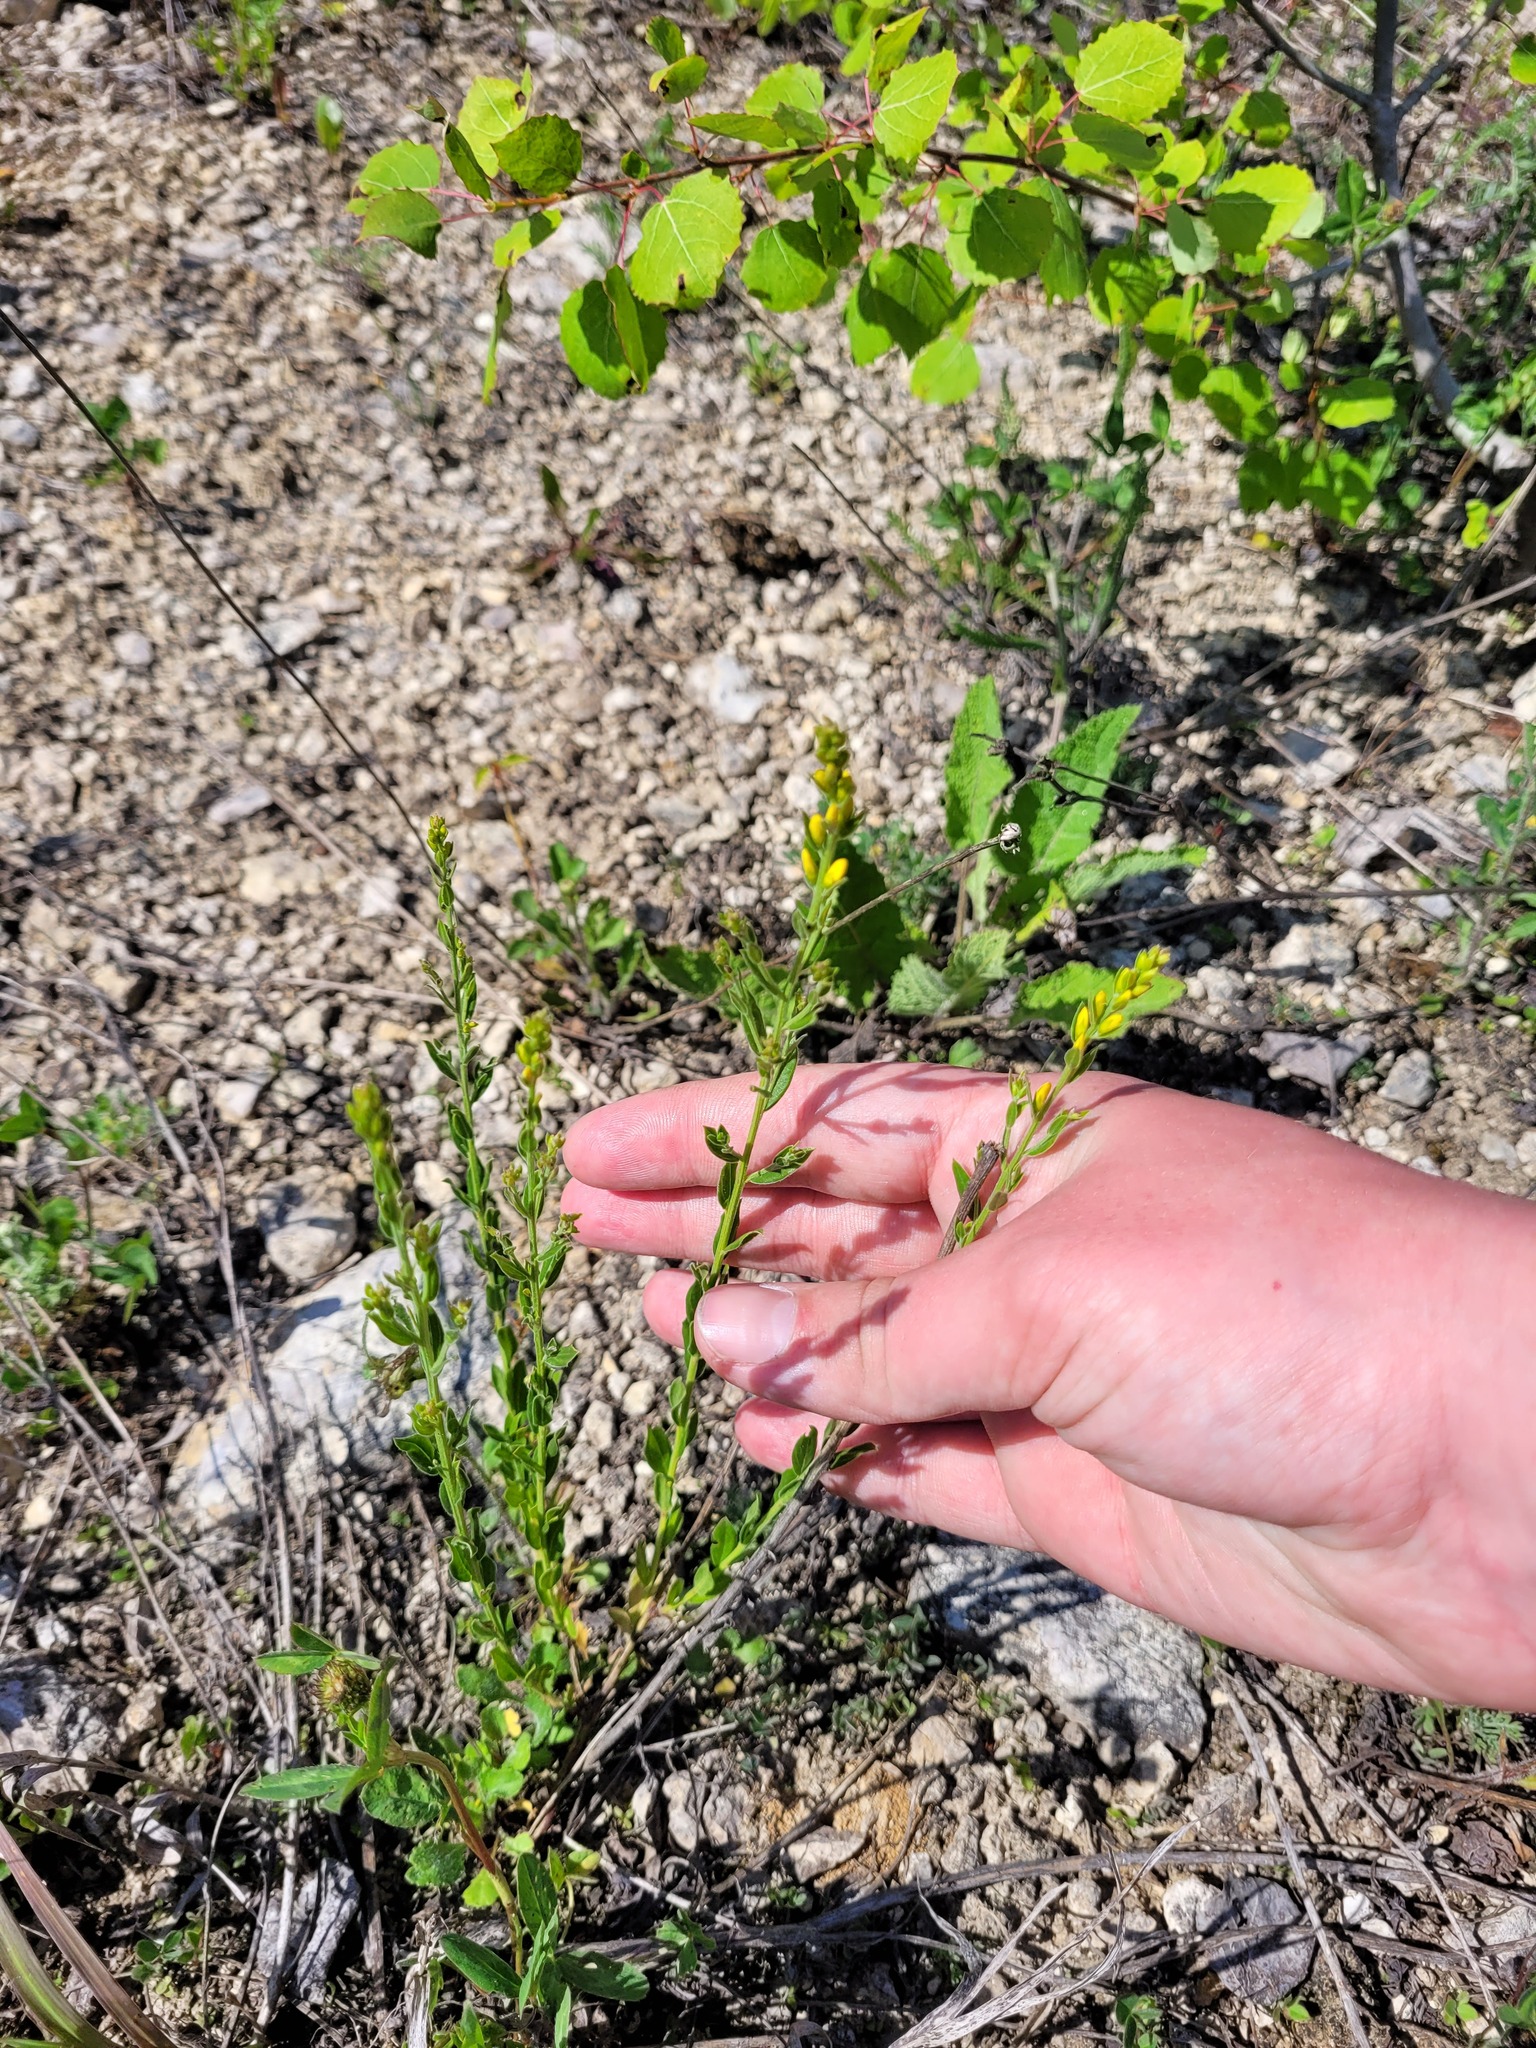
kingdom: Plantae
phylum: Tracheophyta
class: Magnoliopsida
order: Fabales
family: Fabaceae
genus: Genista
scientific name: Genista tinctoria
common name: Dyer's greenweed
